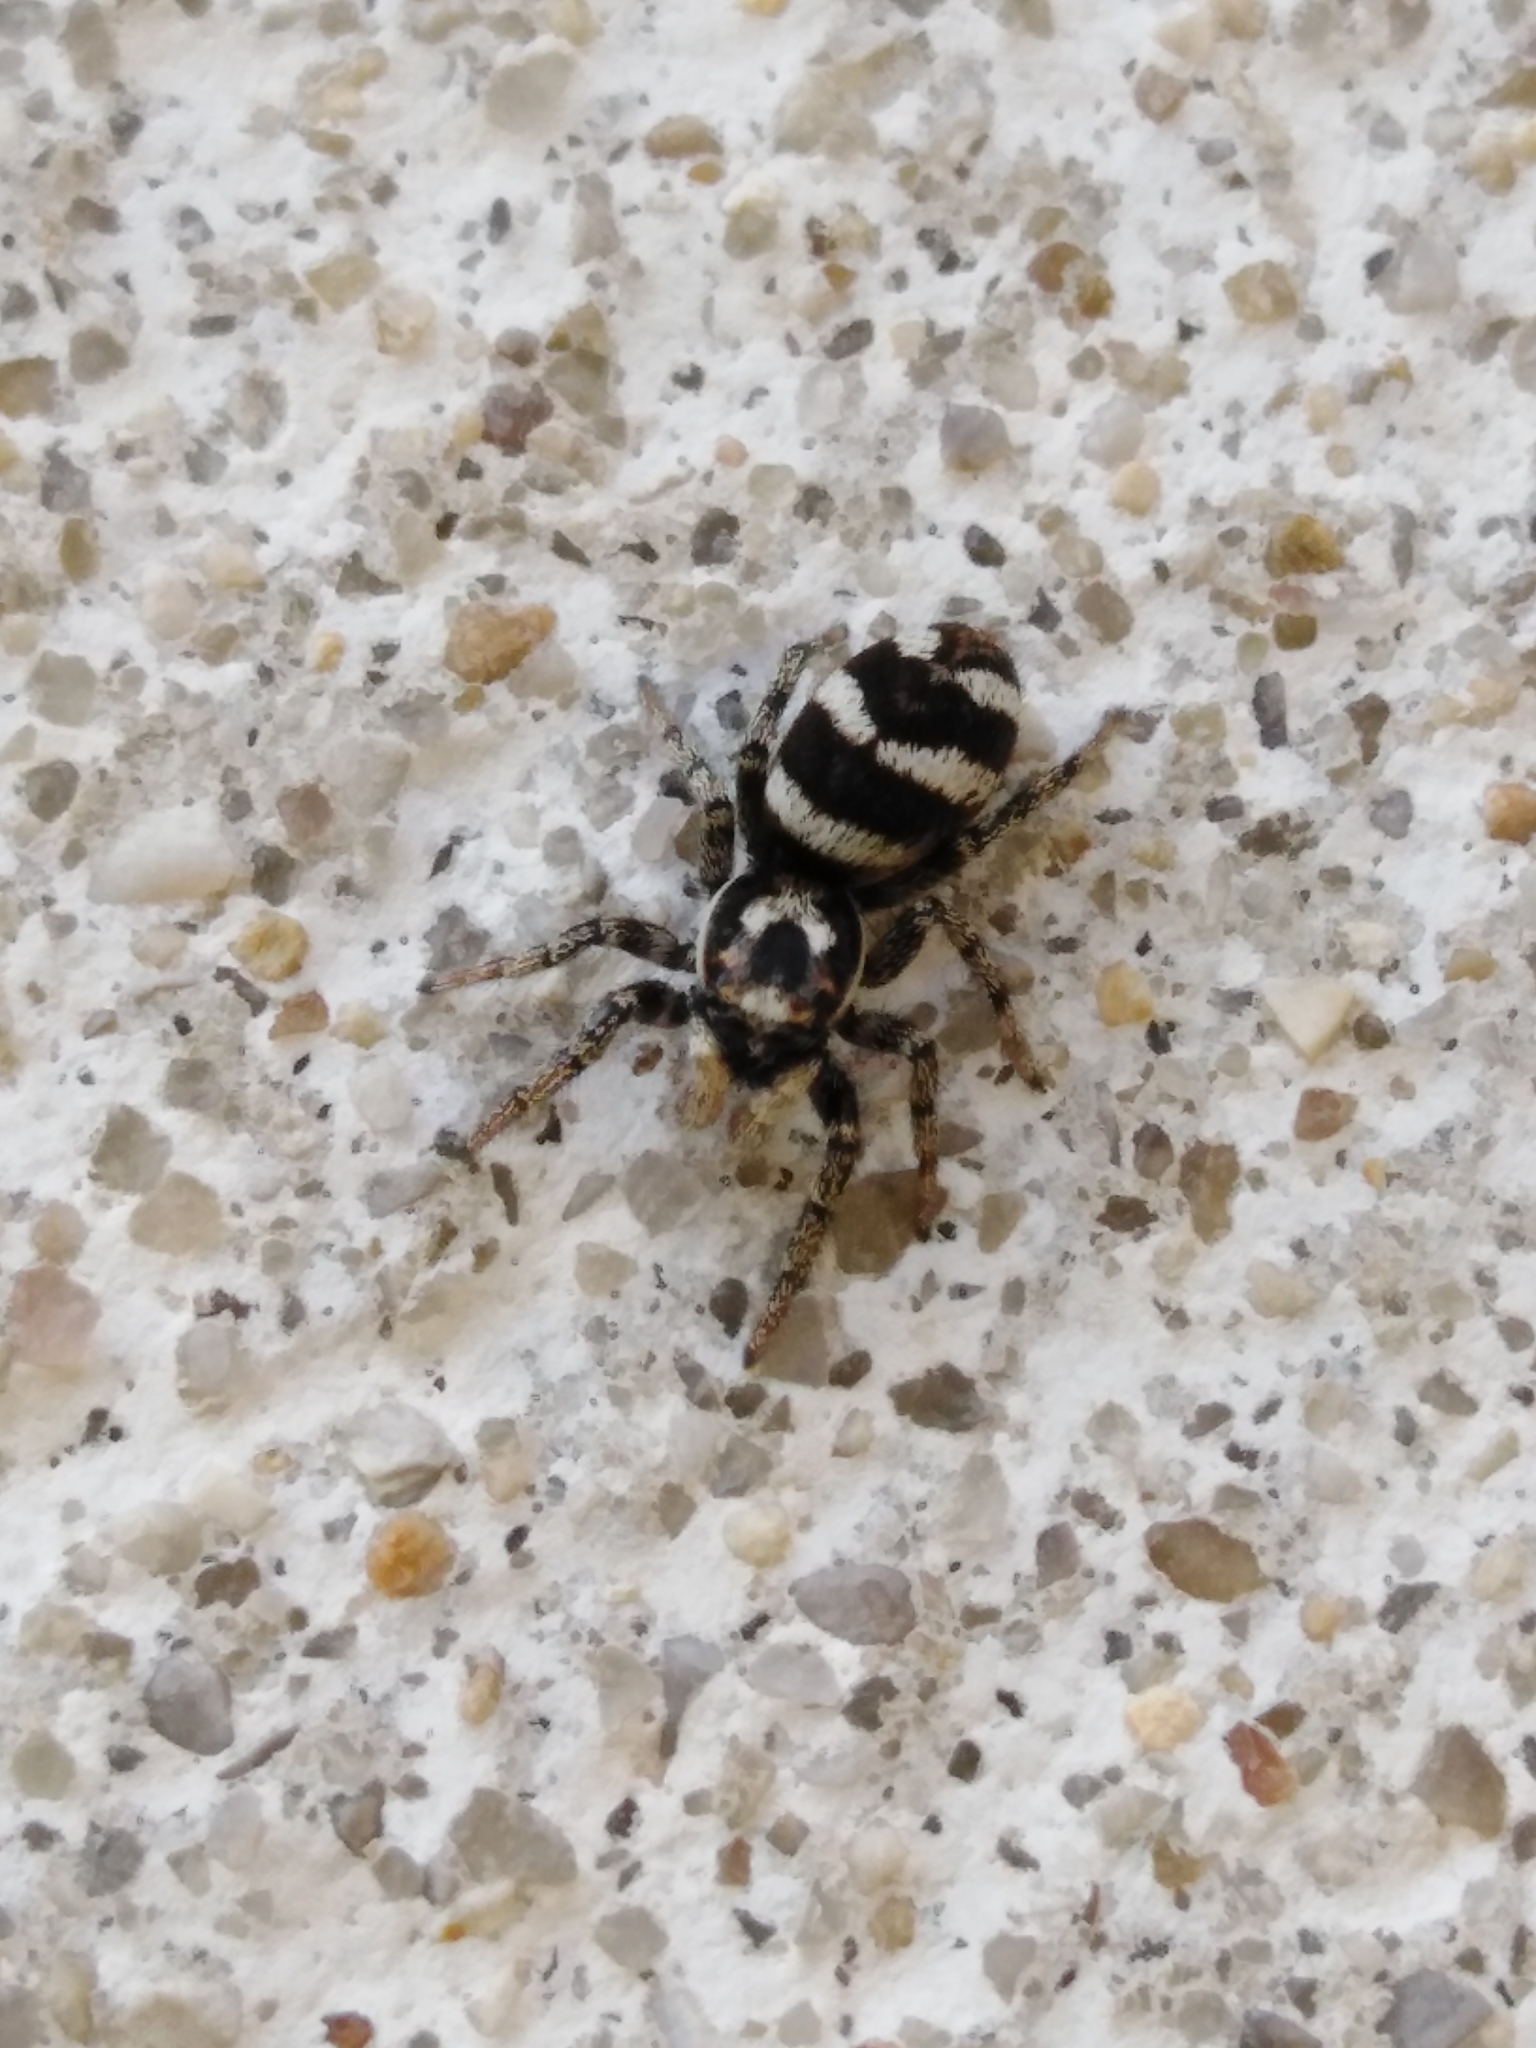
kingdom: Animalia
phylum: Arthropoda
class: Arachnida
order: Araneae
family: Salticidae
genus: Salticus
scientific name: Salticus scenicus
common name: Zebra jumper
